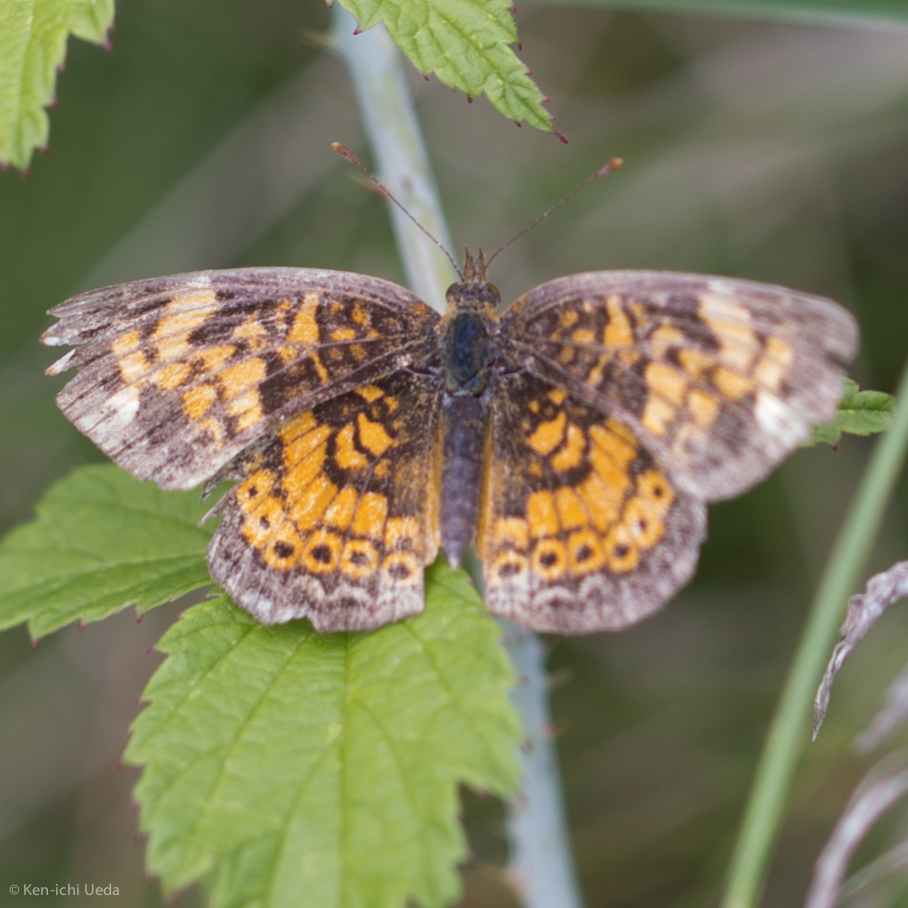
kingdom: Animalia
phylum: Arthropoda
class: Insecta
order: Lepidoptera
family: Nymphalidae
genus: Phyciodes
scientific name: Phyciodes tharos
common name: Pearl crescent
